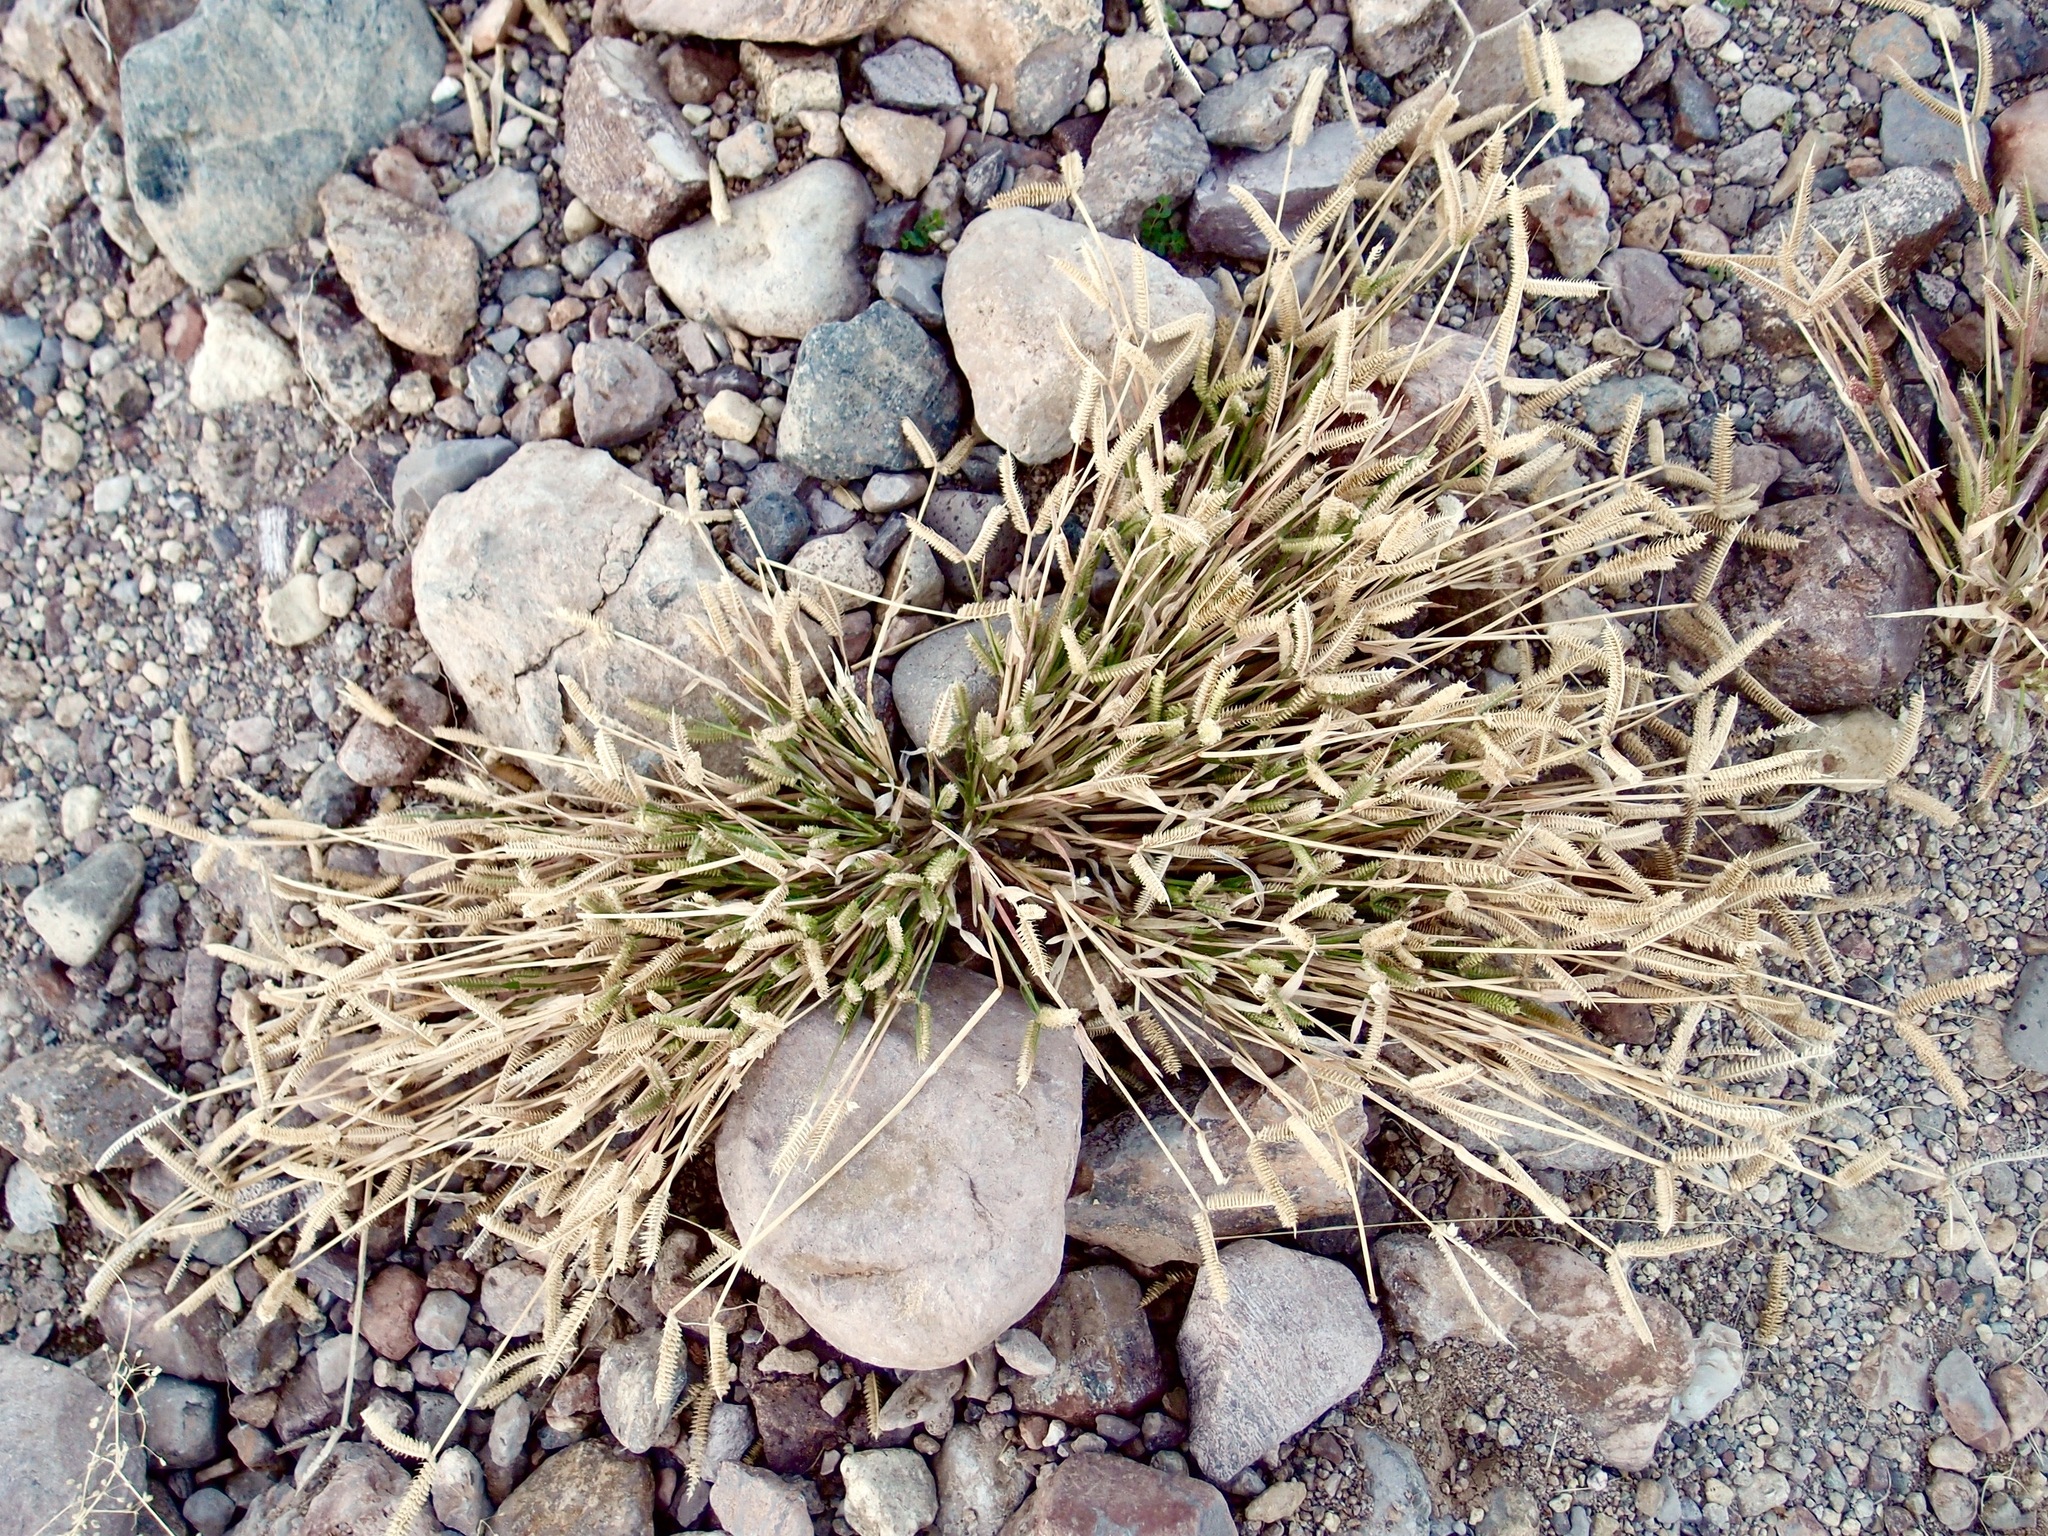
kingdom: Plantae
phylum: Tracheophyta
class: Liliopsida
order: Poales
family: Poaceae
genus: Dactyloctenium
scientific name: Dactyloctenium aegyptium
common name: Egyptian grass
